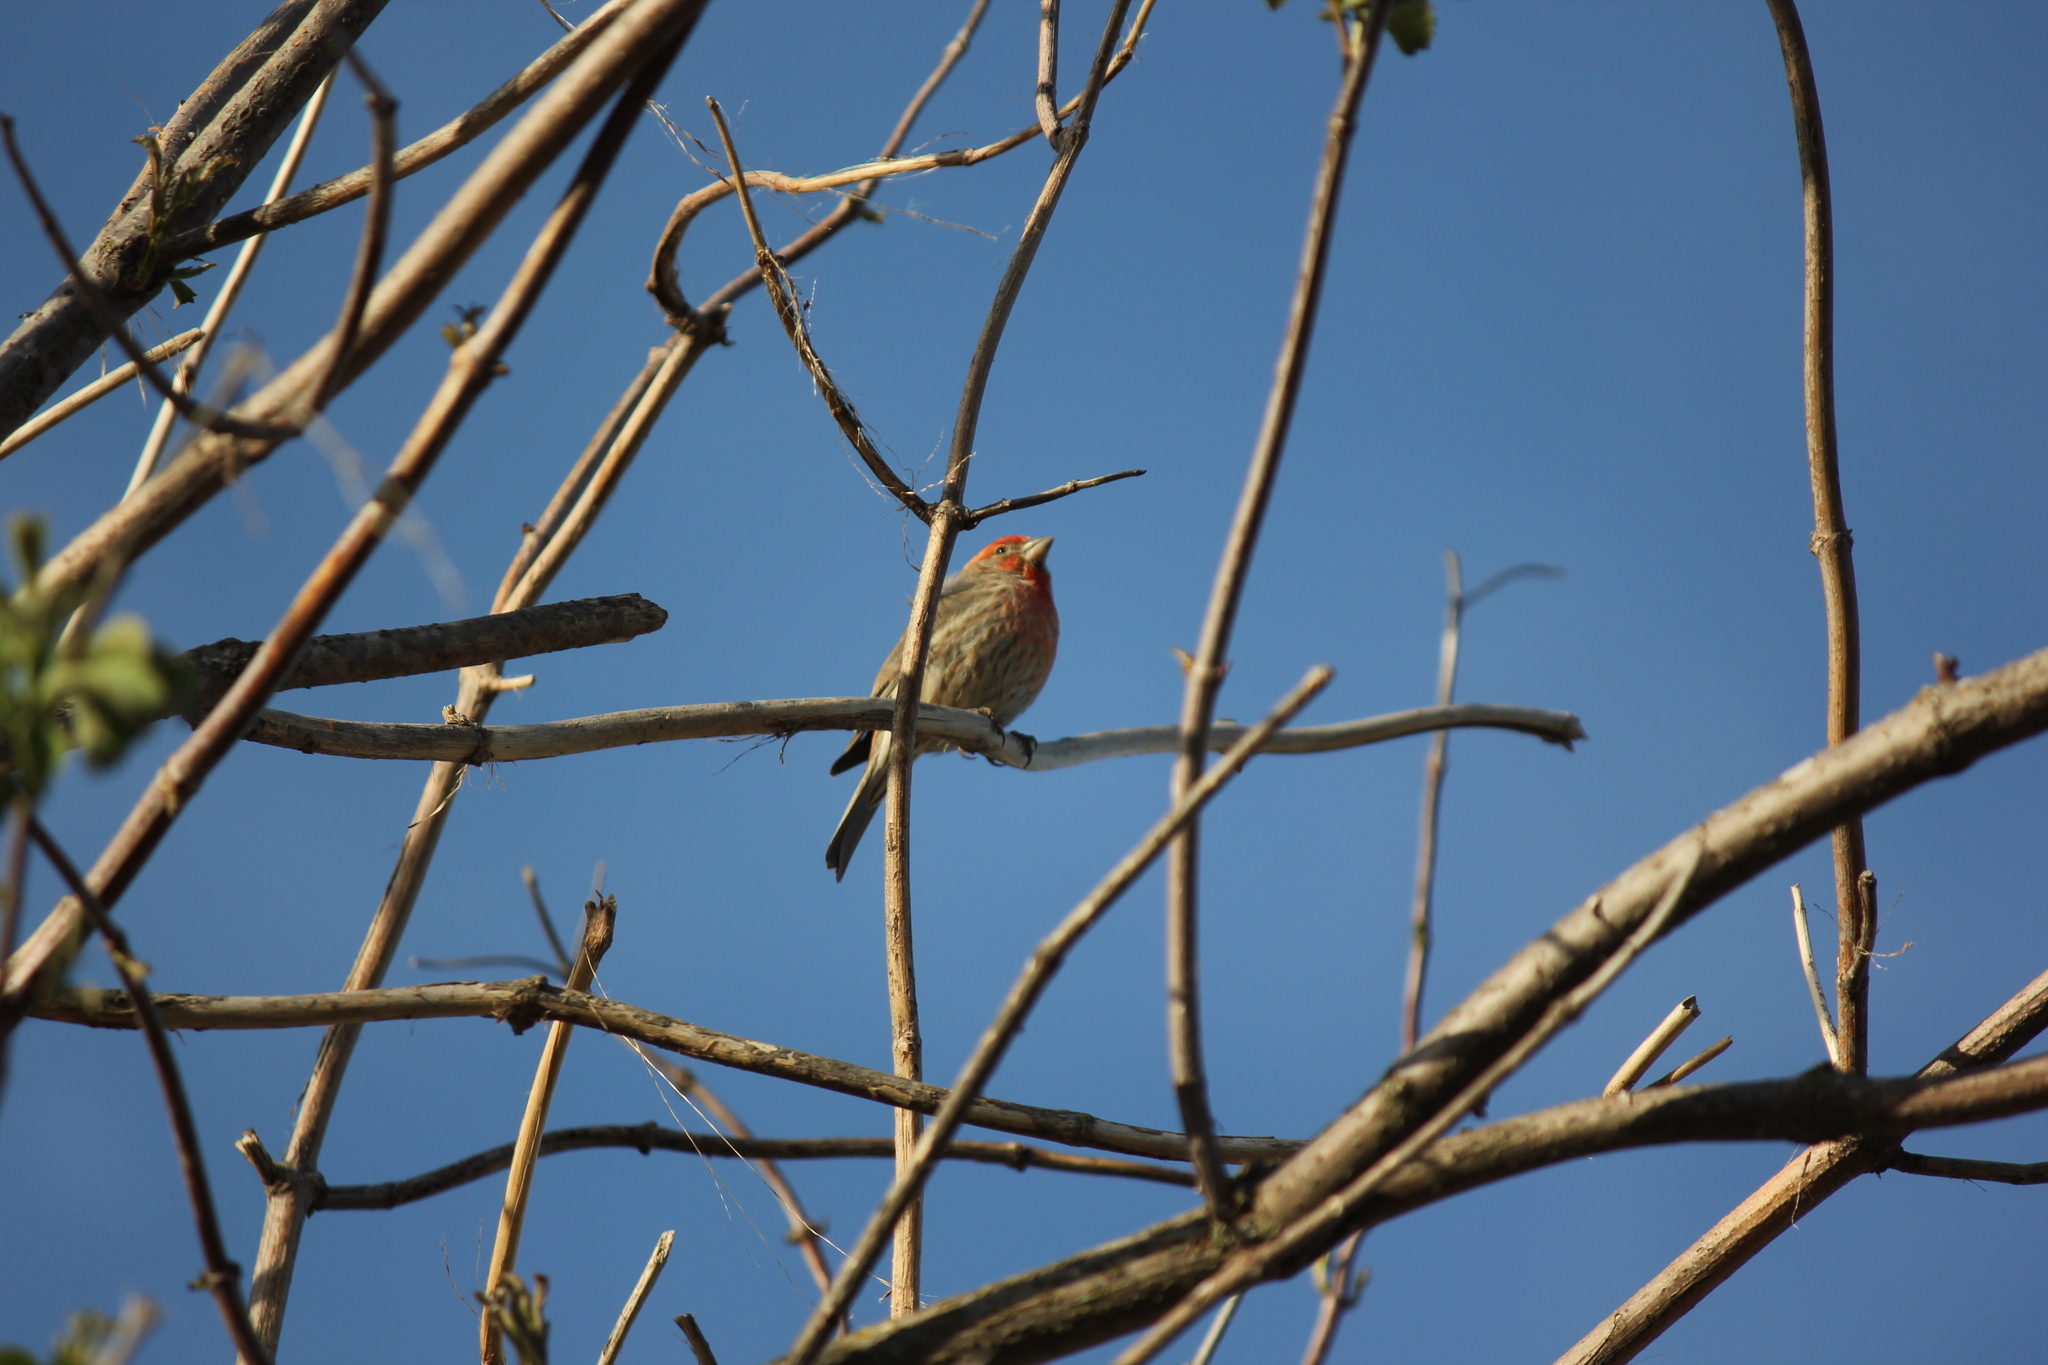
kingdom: Animalia
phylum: Chordata
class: Aves
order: Passeriformes
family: Fringillidae
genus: Haemorhous
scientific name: Haemorhous mexicanus
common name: House finch
